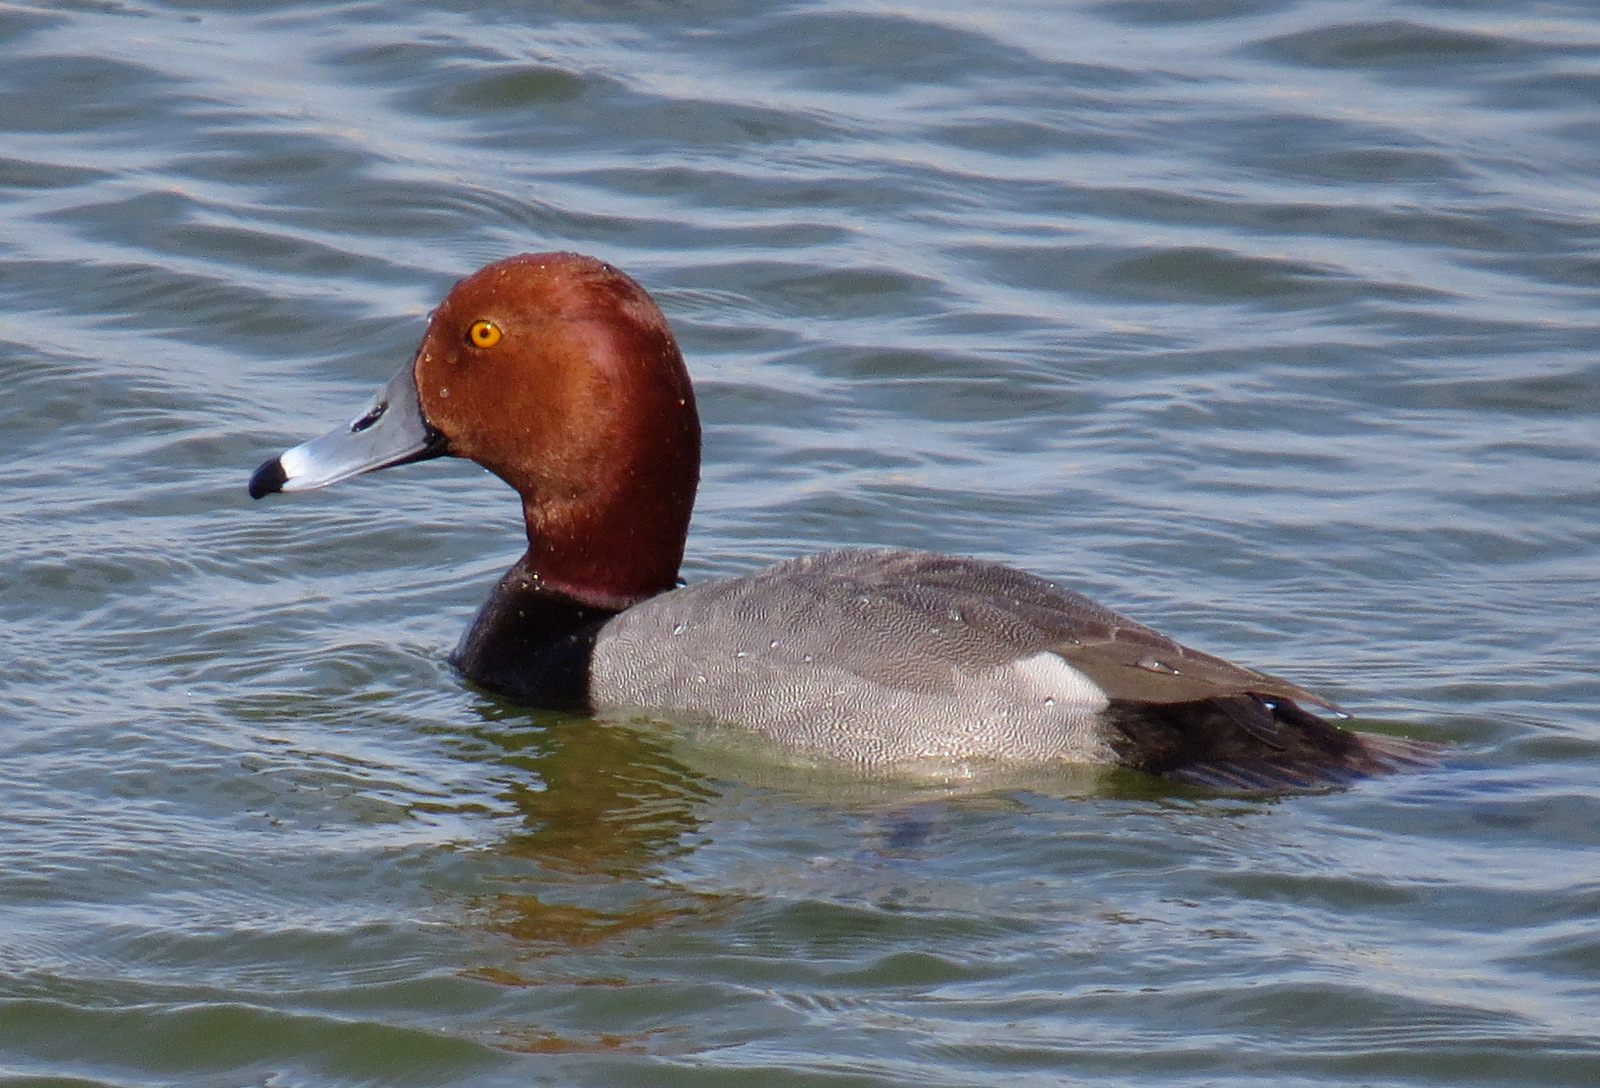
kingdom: Animalia
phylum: Chordata
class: Aves
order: Anseriformes
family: Anatidae
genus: Aythya
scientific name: Aythya americana
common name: Redhead
